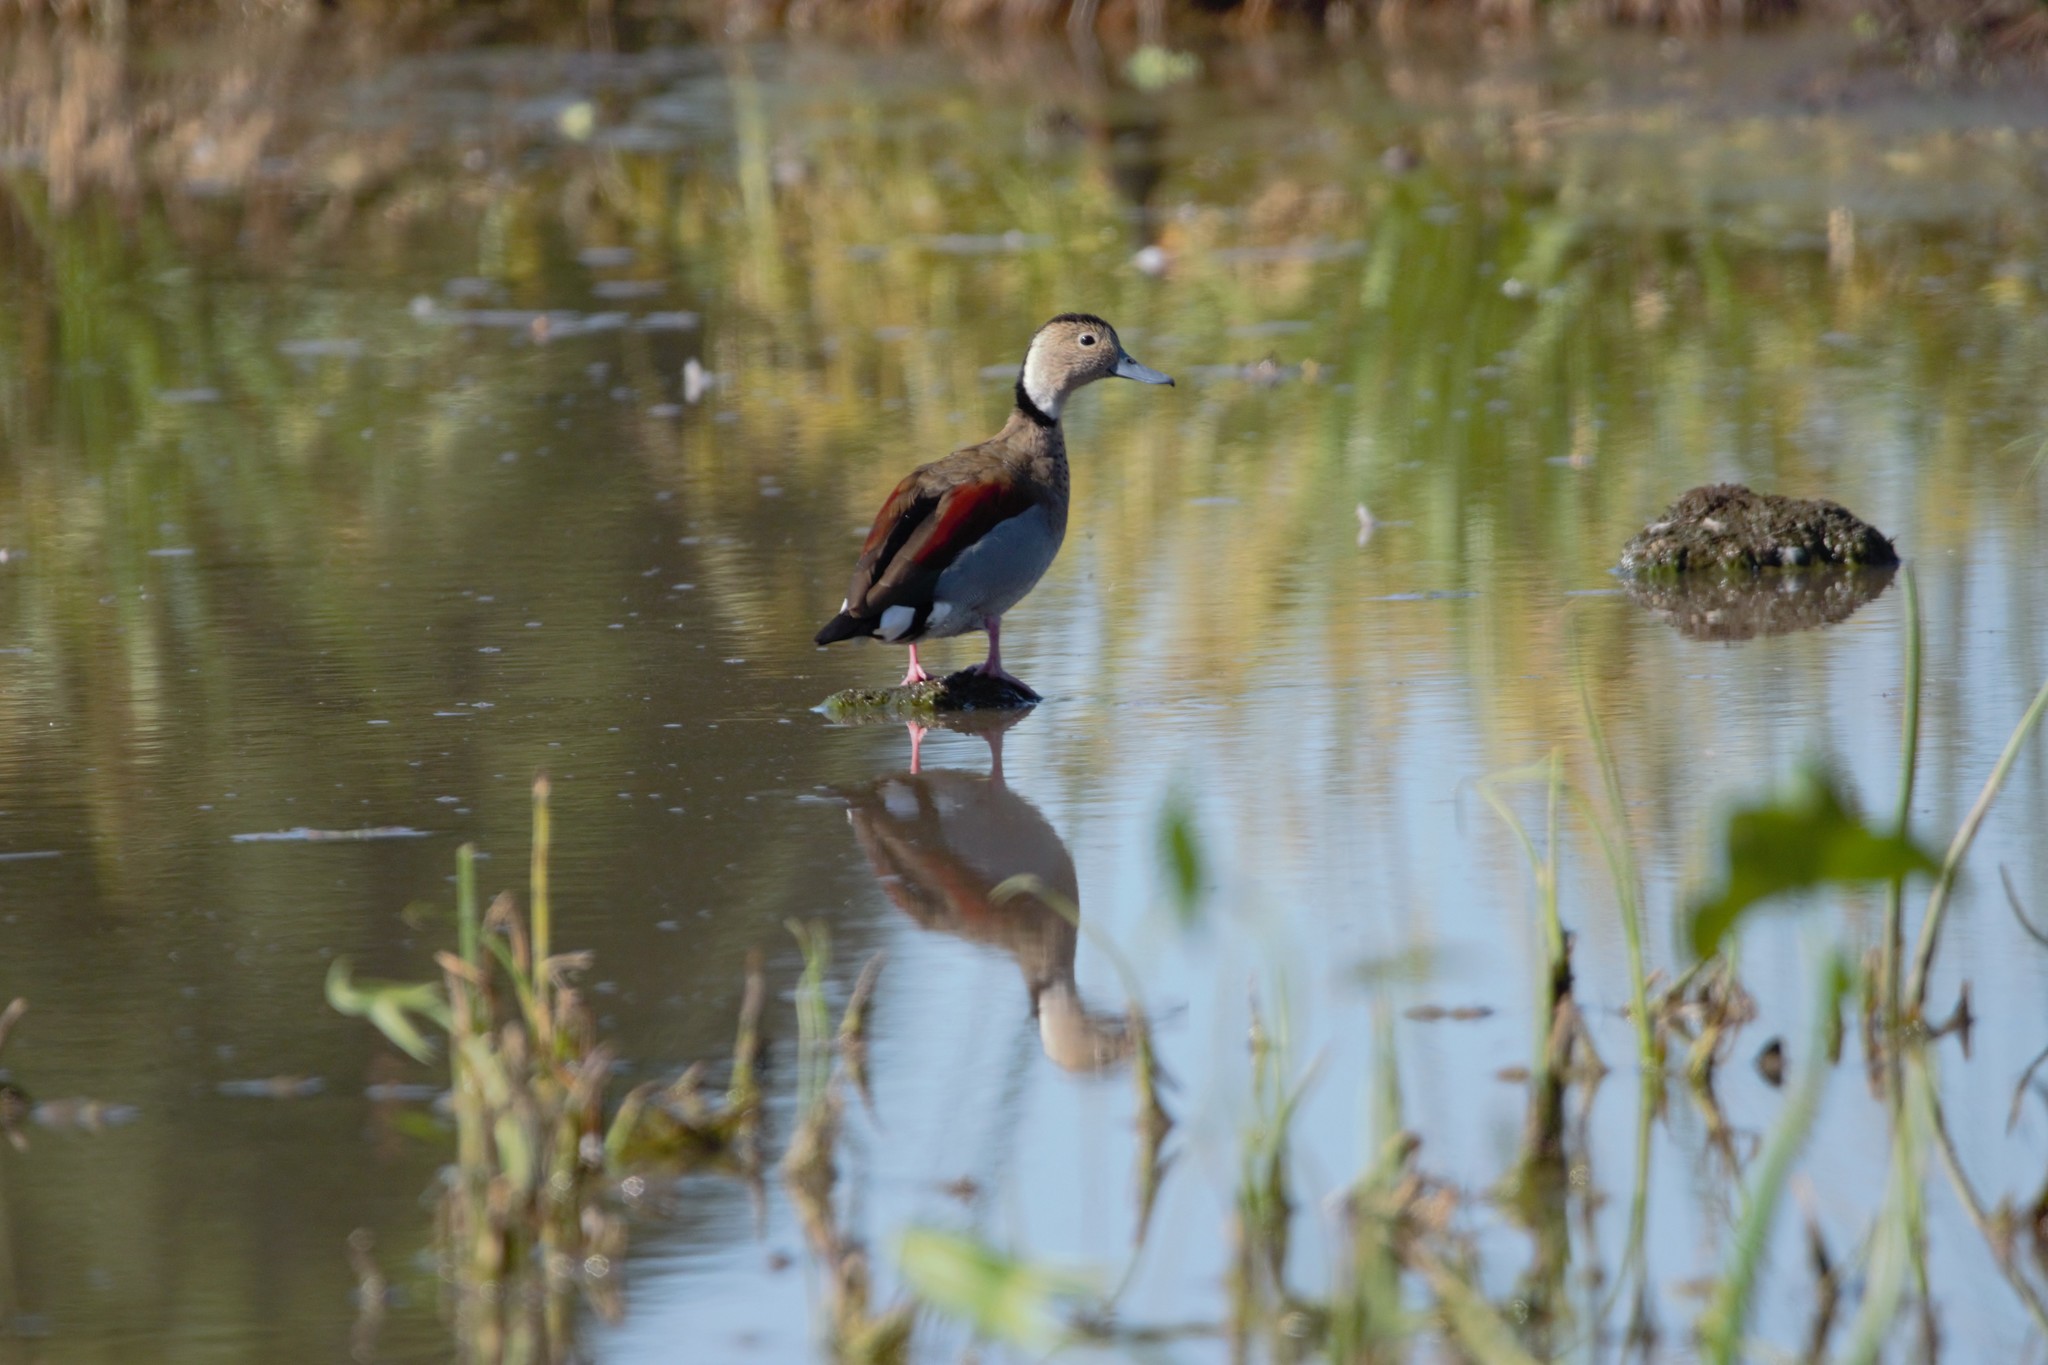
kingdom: Animalia
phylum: Chordata
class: Aves
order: Anseriformes
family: Anatidae
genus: Callonetta
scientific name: Callonetta leucophrys
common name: Ringed teal
